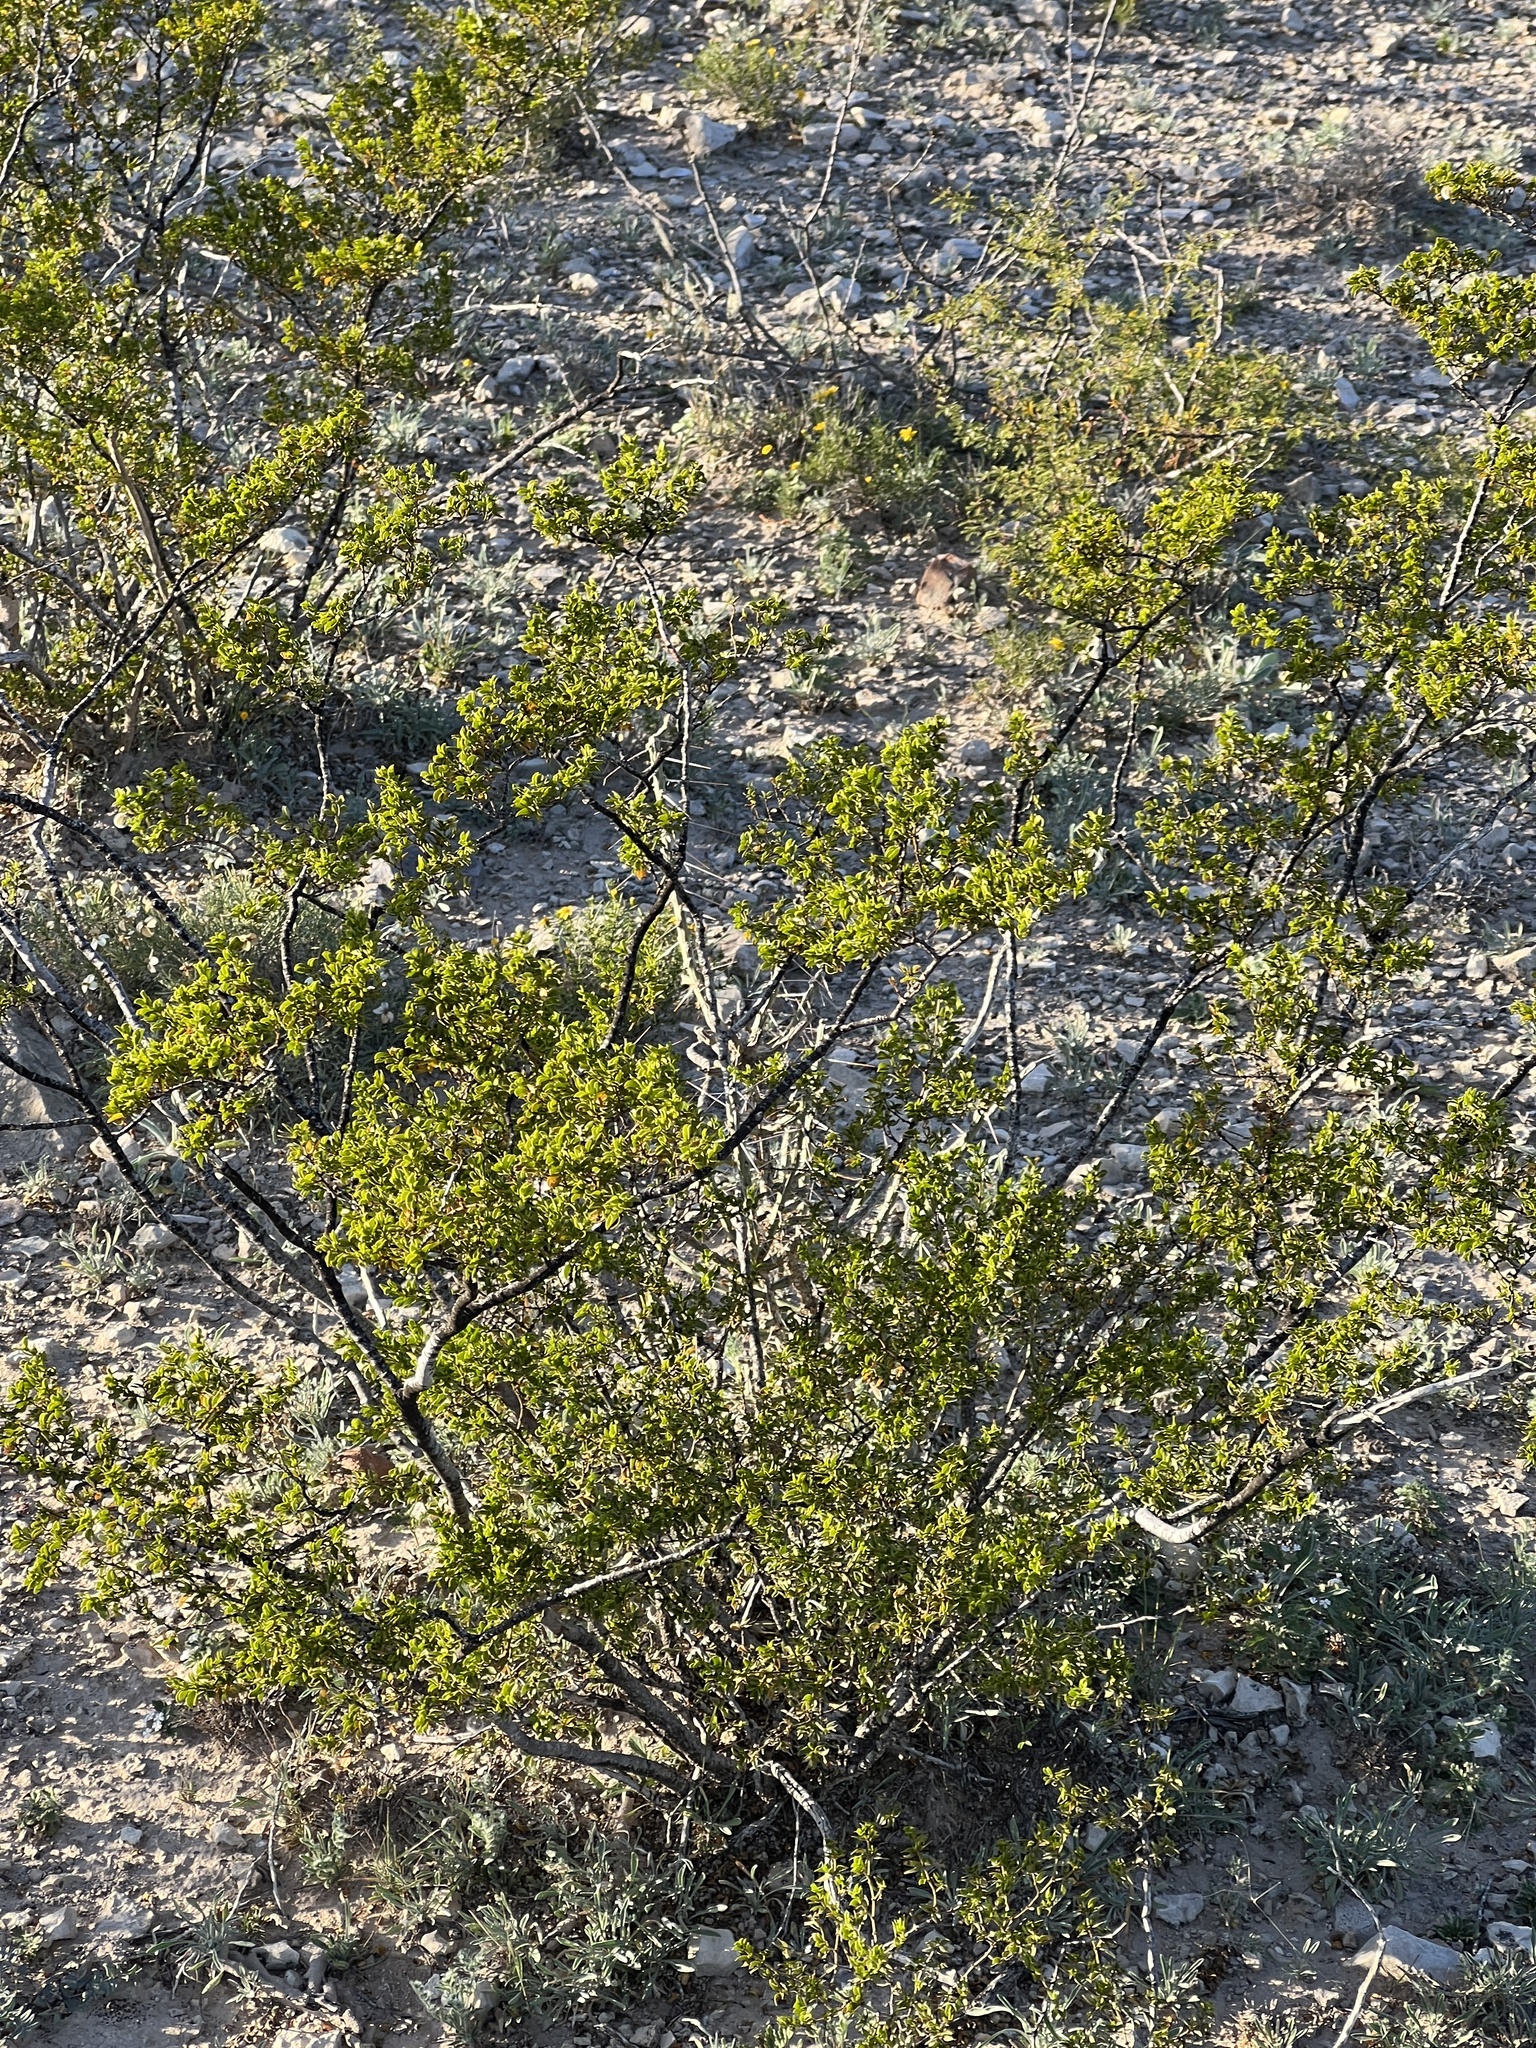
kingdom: Plantae
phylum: Tracheophyta
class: Magnoliopsida
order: Zygophyllales
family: Zygophyllaceae
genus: Larrea
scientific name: Larrea tridentata
